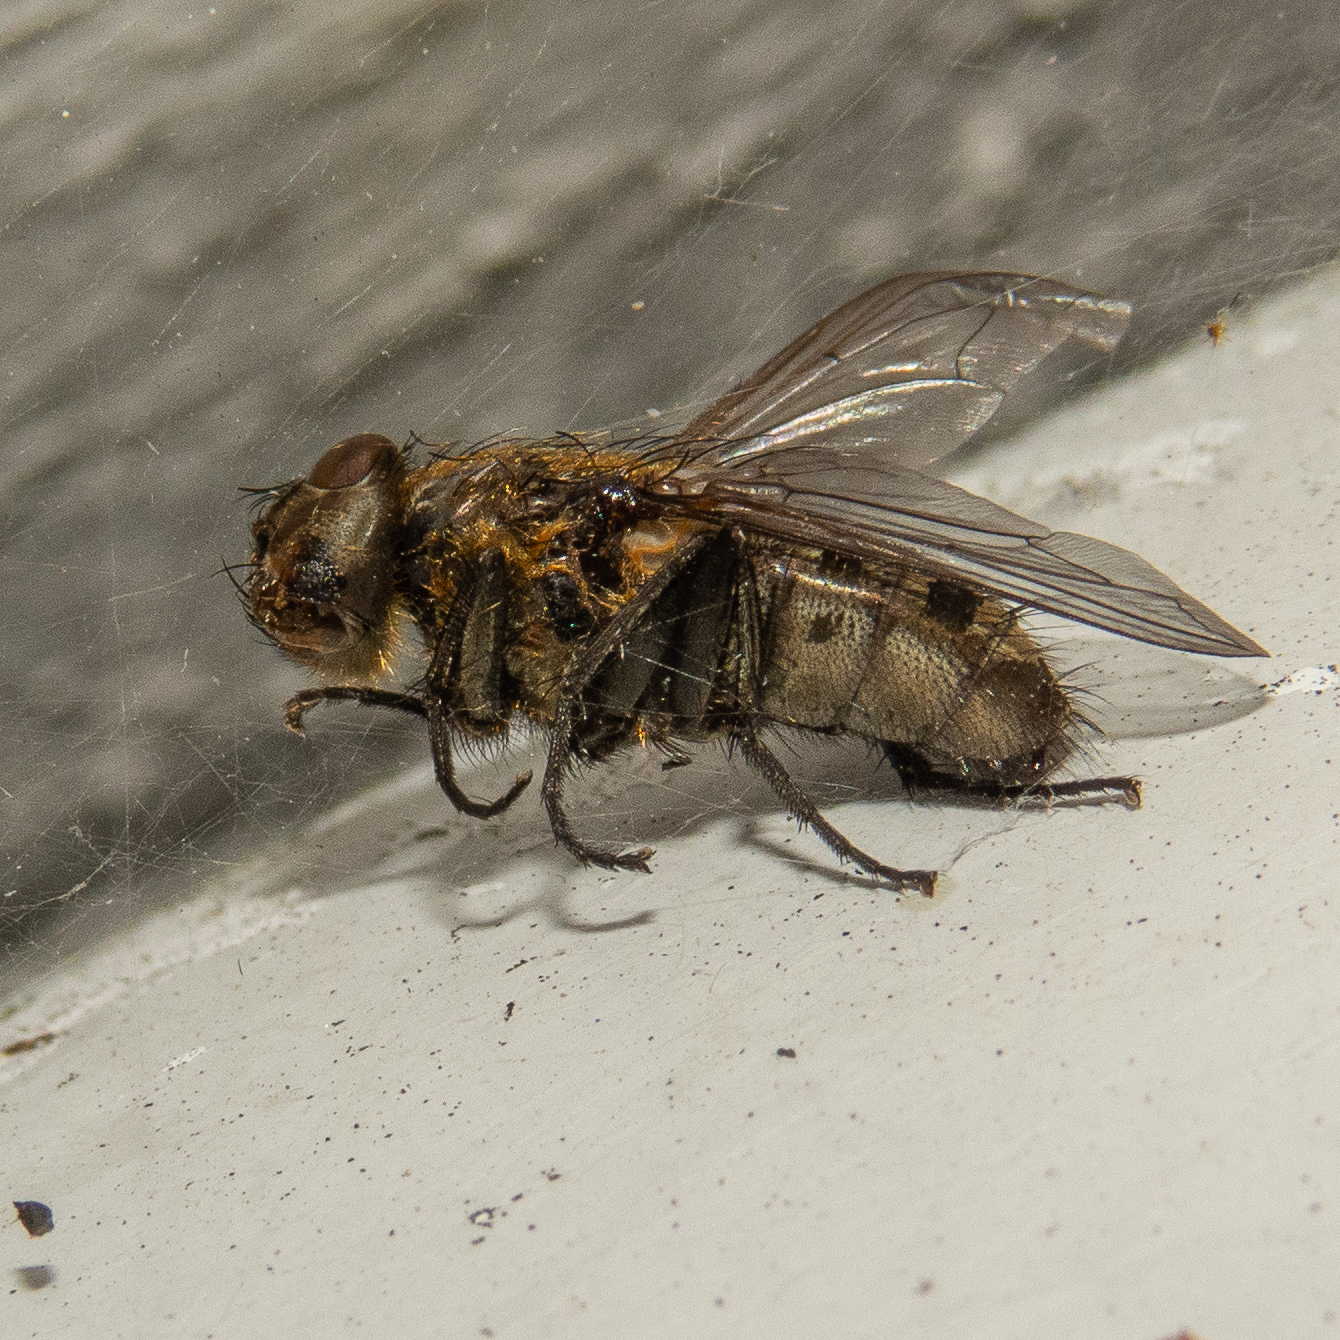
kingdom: Animalia
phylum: Arthropoda
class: Insecta
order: Diptera
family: Polleniidae
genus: Pollenia
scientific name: Pollenia
